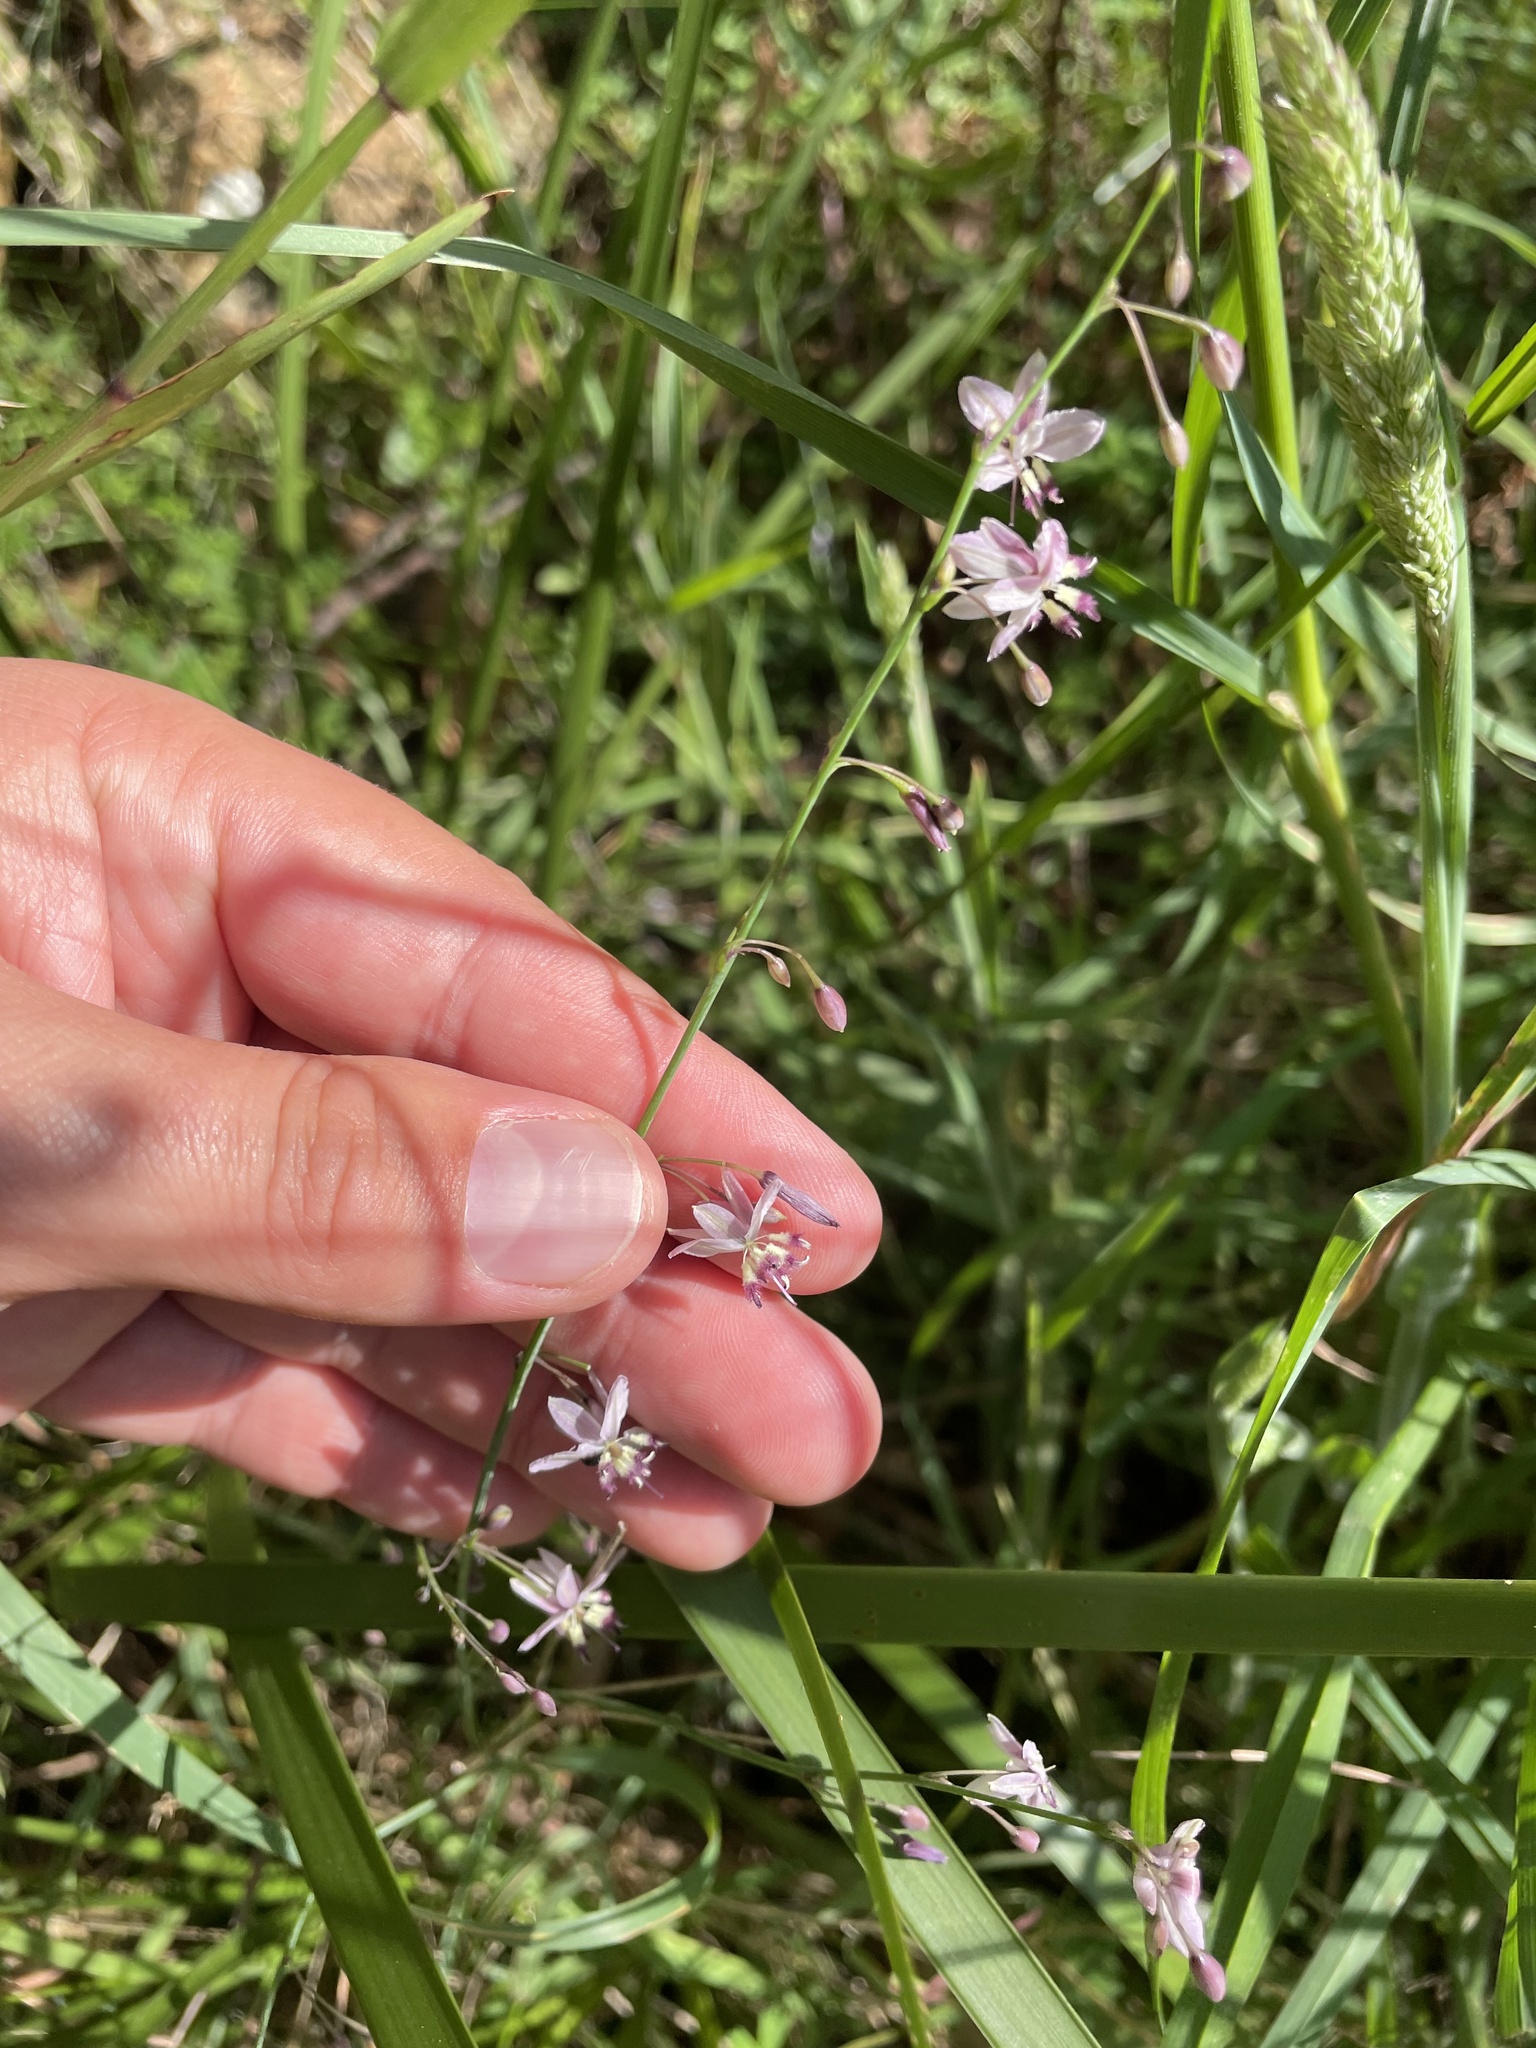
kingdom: Plantae
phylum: Tracheophyta
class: Liliopsida
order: Asparagales
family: Asparagaceae
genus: Arthropodium
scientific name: Arthropodium milleflorum
